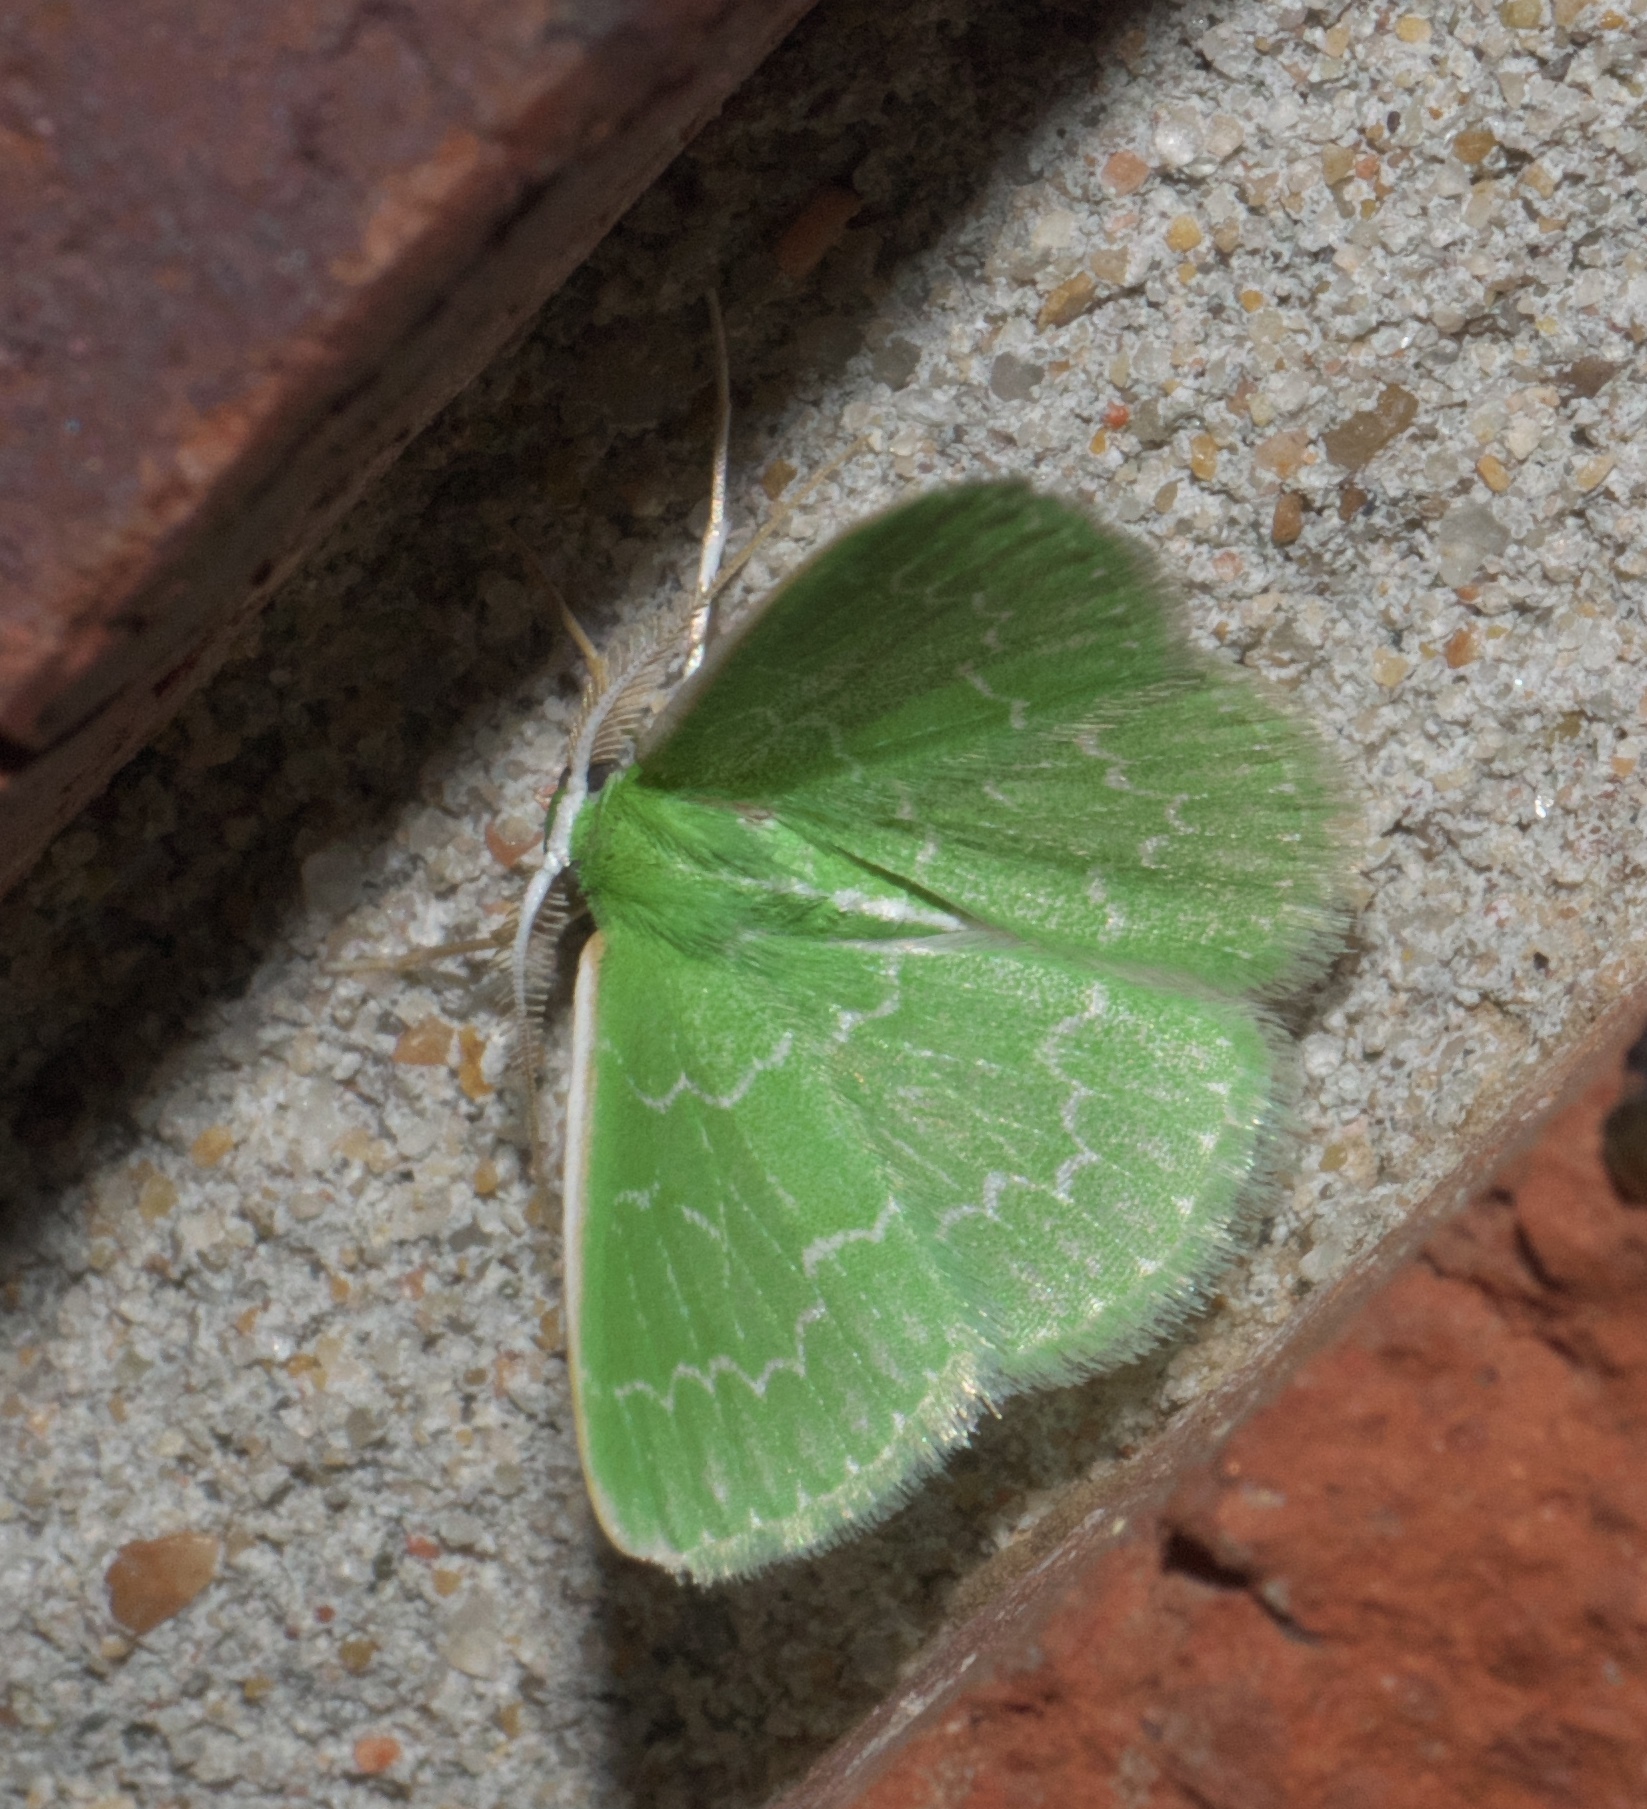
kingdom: Animalia
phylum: Arthropoda
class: Insecta
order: Lepidoptera
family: Geometridae
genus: Synchlora
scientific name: Synchlora frondaria
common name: Southern emerald
